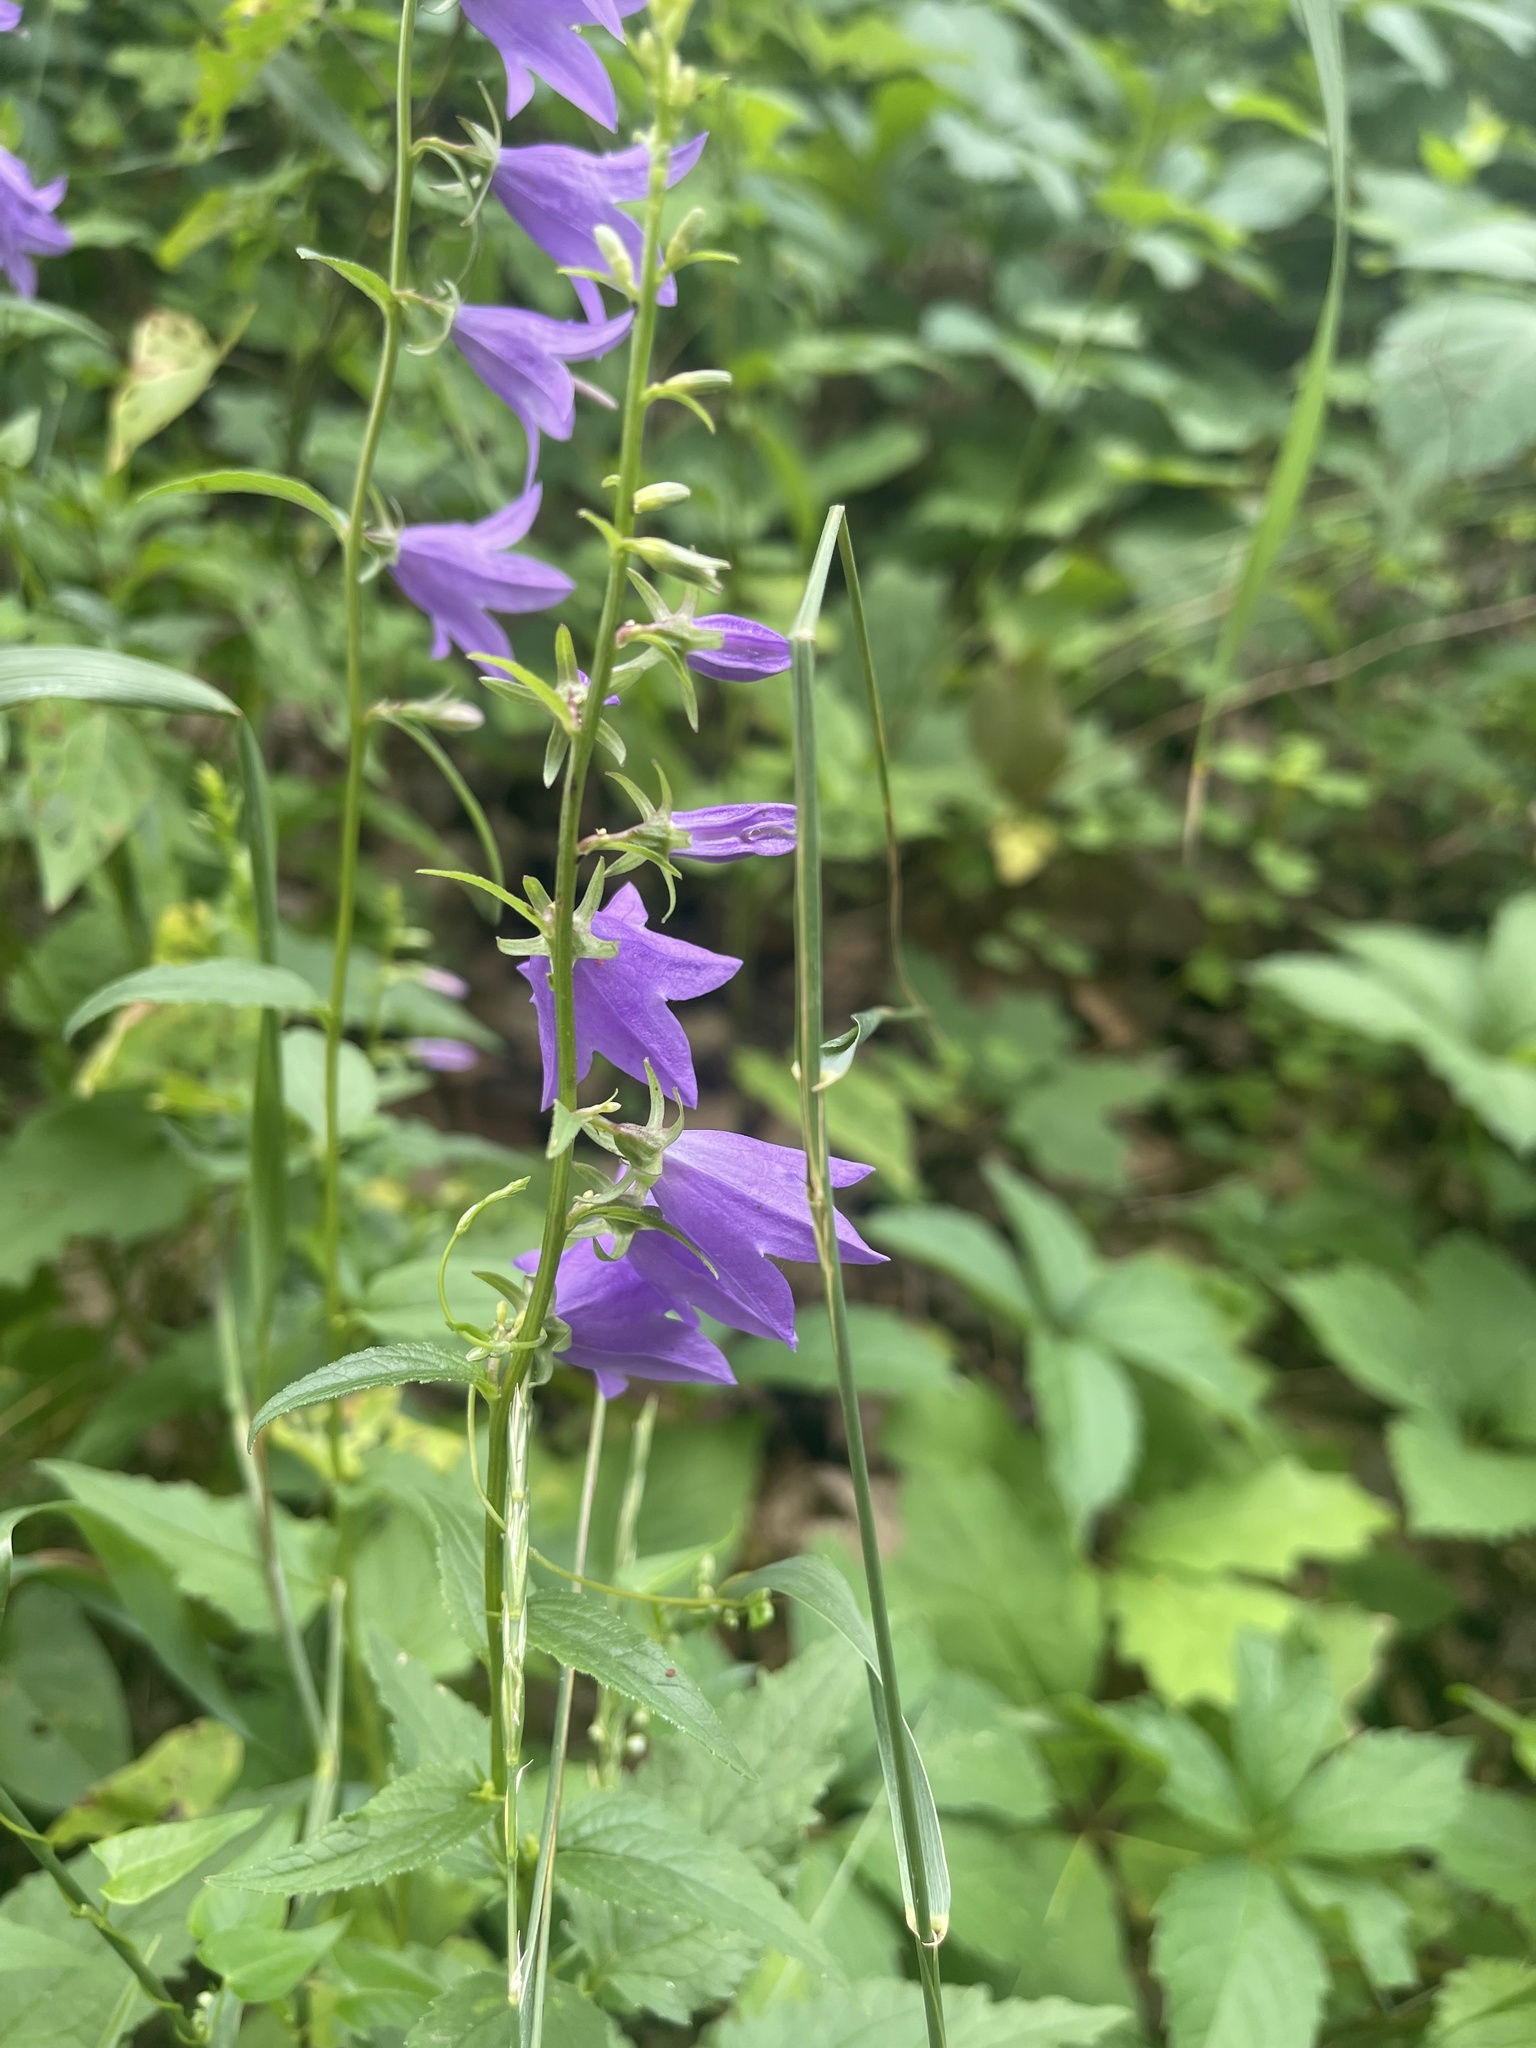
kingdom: Plantae
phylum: Tracheophyta
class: Magnoliopsida
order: Asterales
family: Campanulaceae
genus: Campanula
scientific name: Campanula rapunculoides
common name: Creeping bellflower
